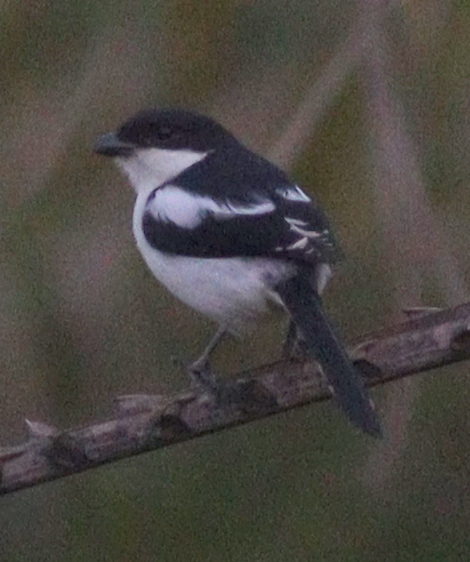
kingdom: Animalia
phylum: Chordata
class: Aves
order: Passeriformes
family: Laniidae
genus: Lanius
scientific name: Lanius humeralis
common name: Northern fiscal
